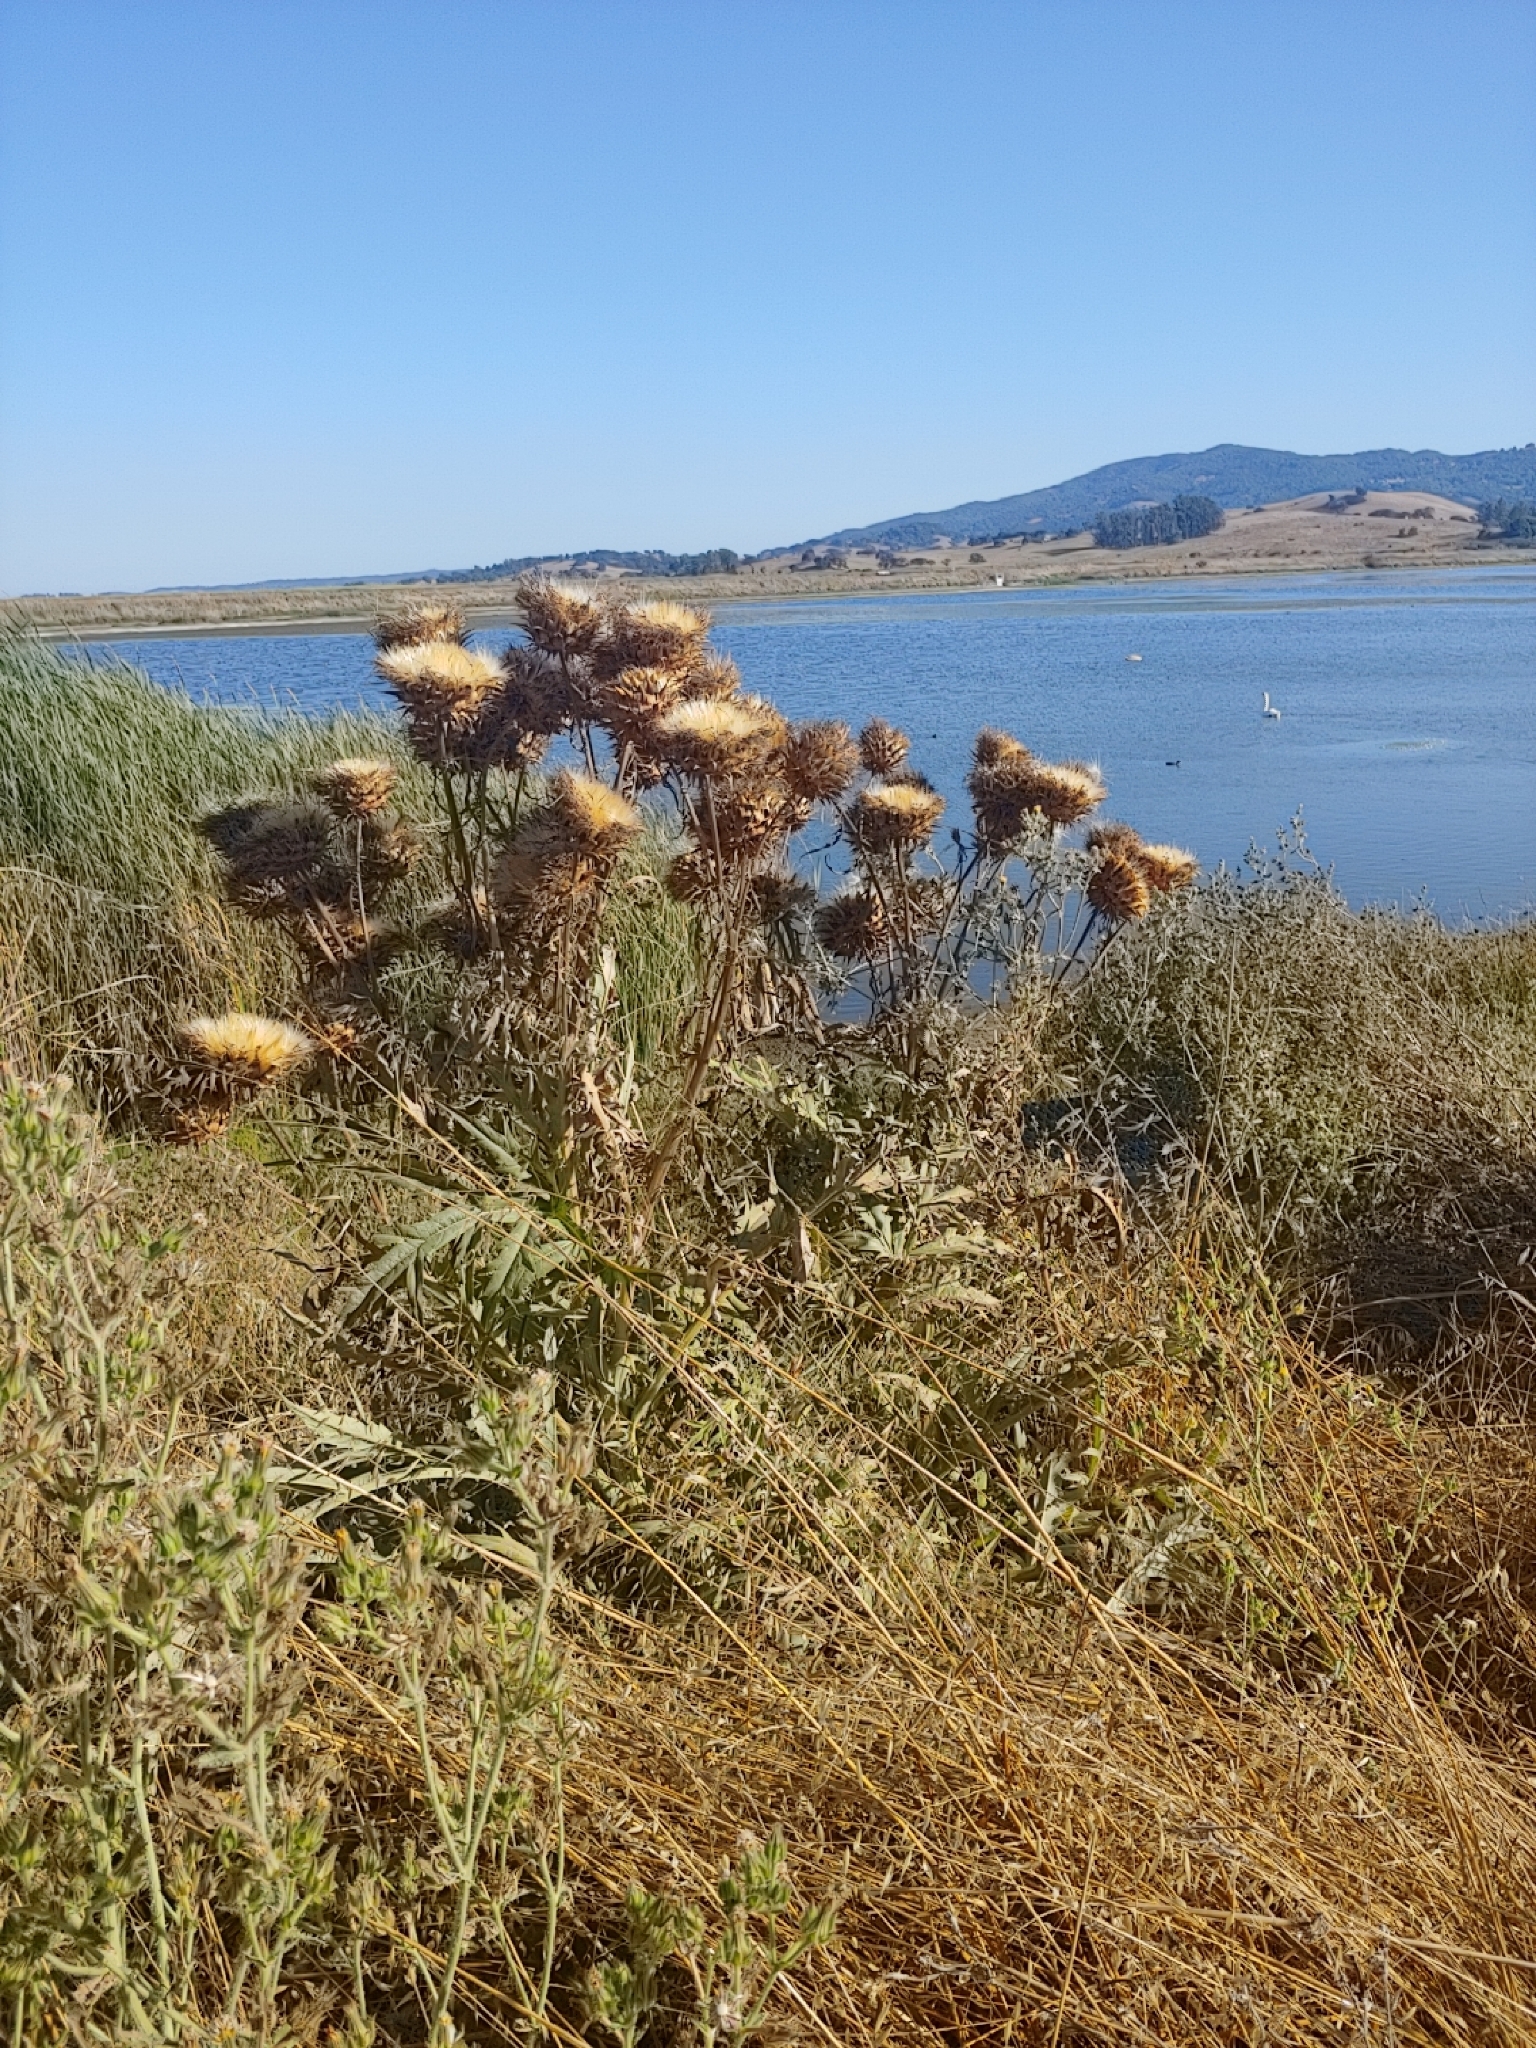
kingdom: Plantae
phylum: Tracheophyta
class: Magnoliopsida
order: Asterales
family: Asteraceae
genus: Cynara
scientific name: Cynara cardunculus
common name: Globe artichoke
